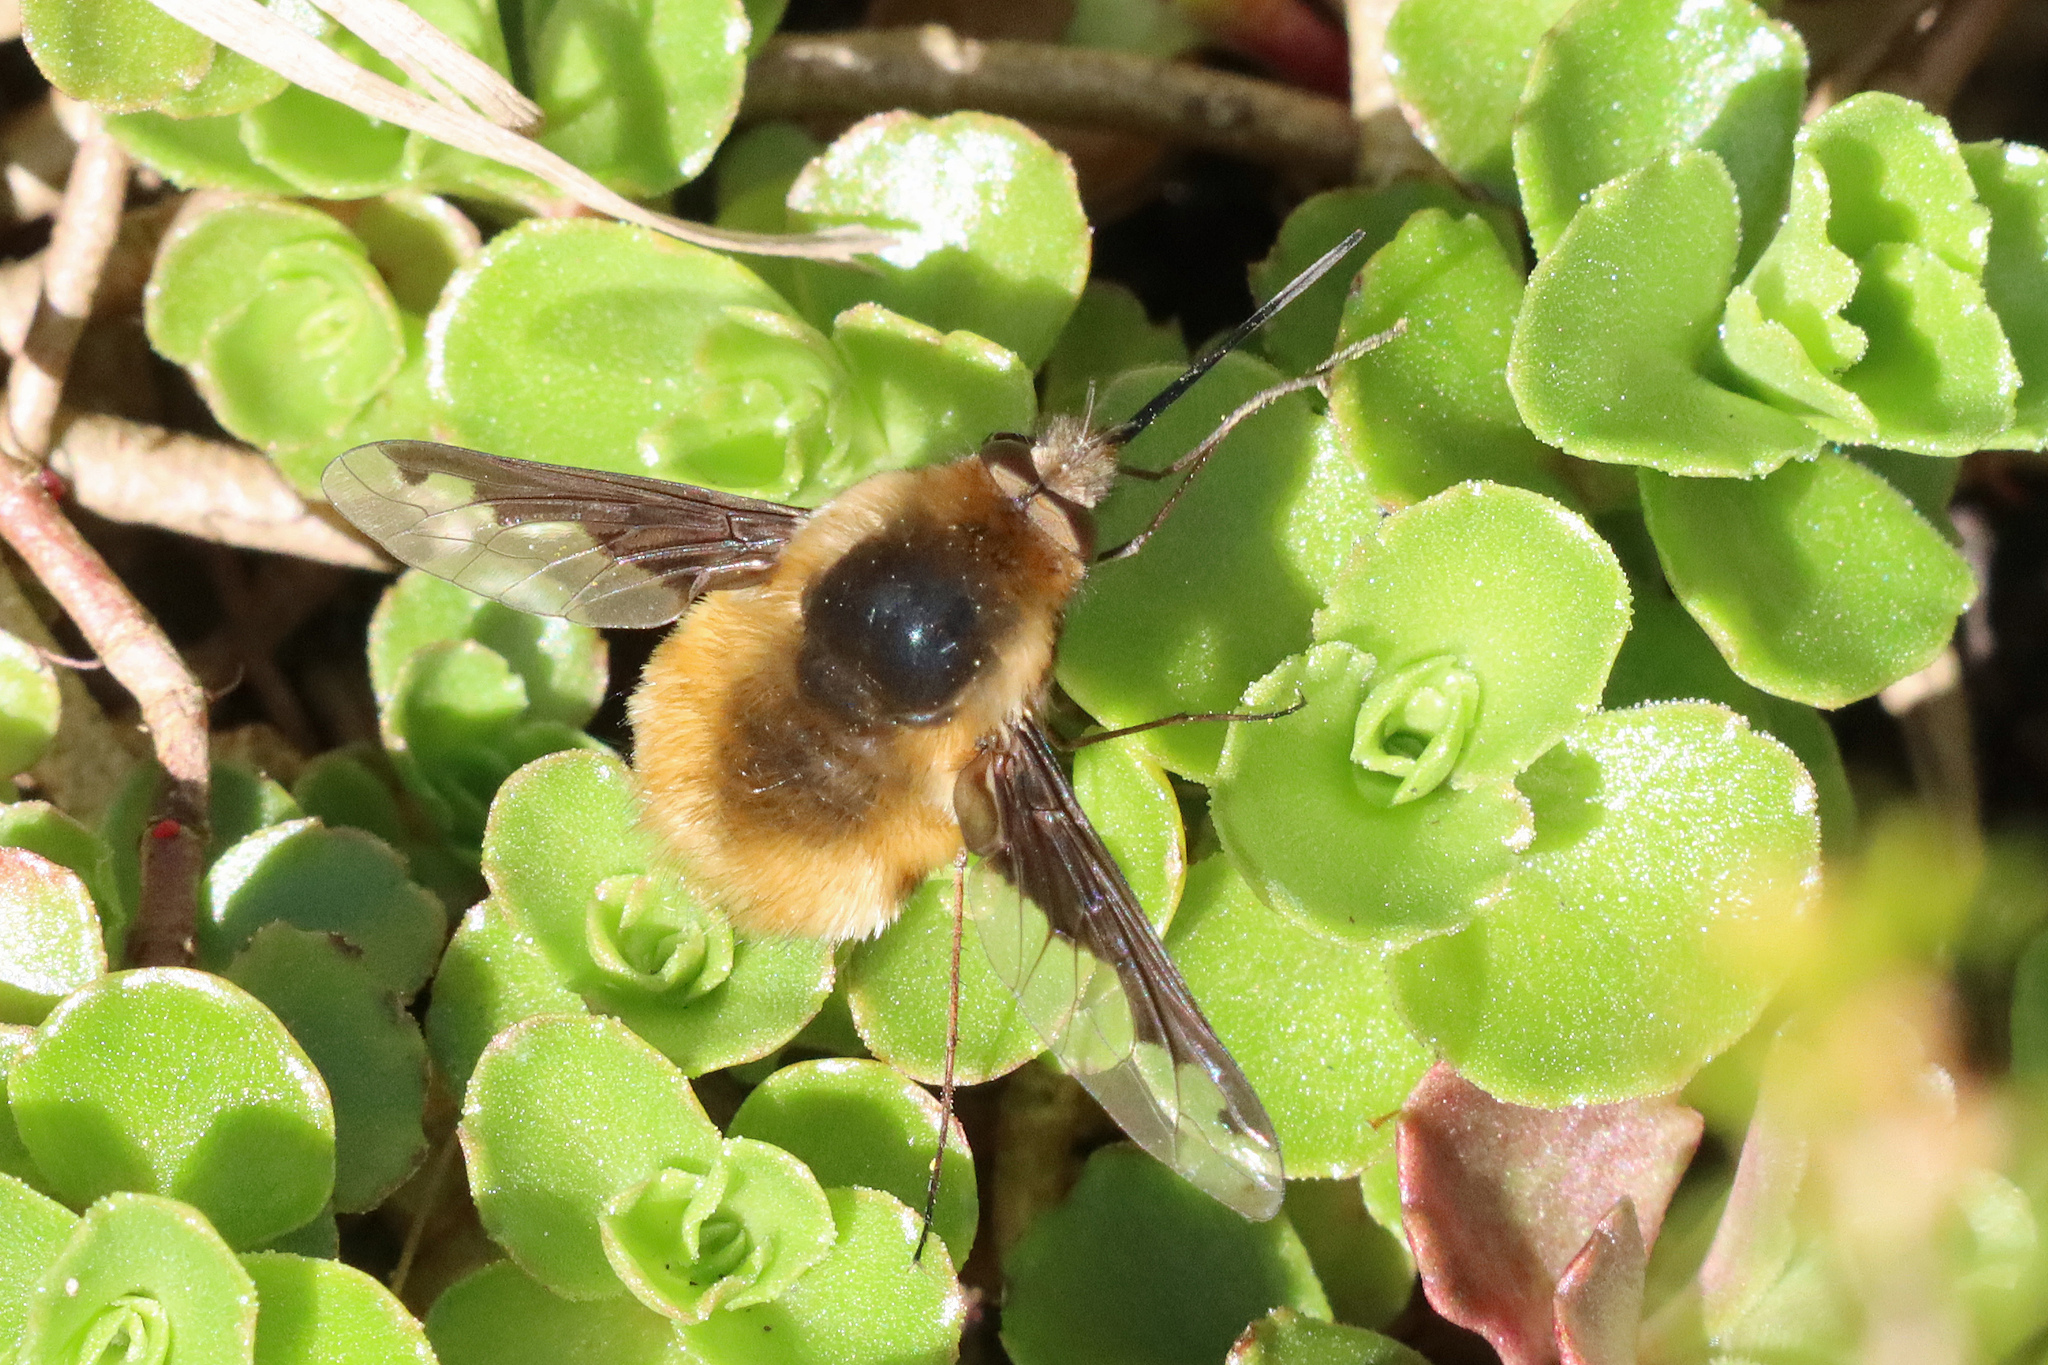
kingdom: Animalia
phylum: Arthropoda
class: Insecta
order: Diptera
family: Bombyliidae
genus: Bombylius
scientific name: Bombylius major
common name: Bee fly
